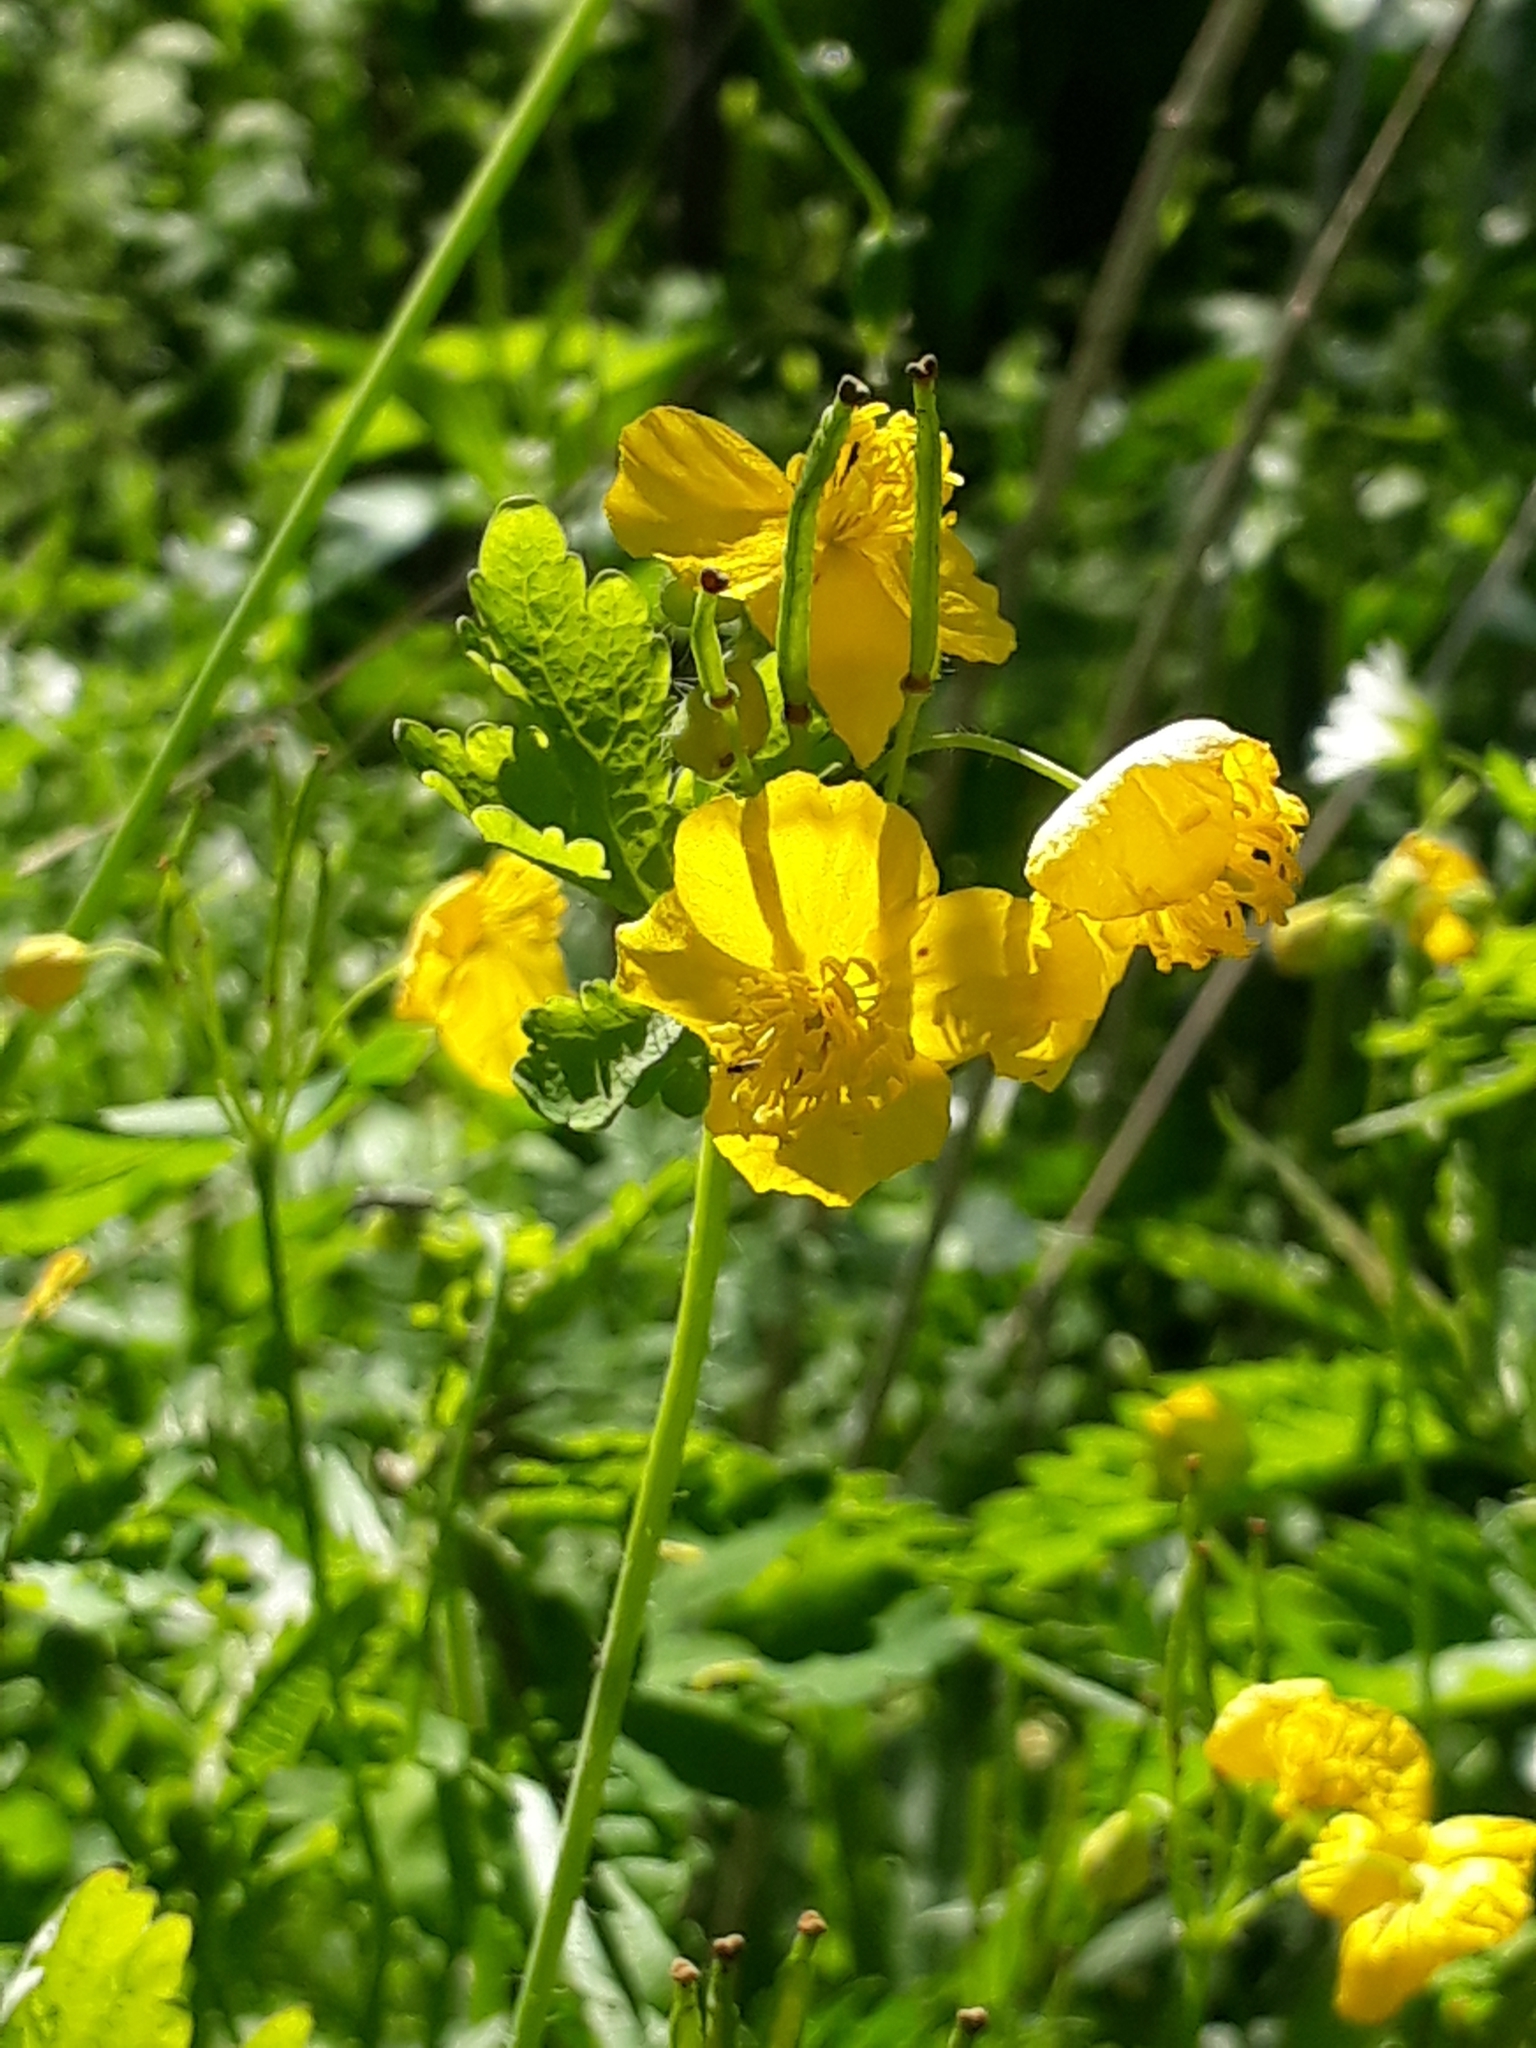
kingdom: Plantae
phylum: Tracheophyta
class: Magnoliopsida
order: Ranunculales
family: Papaveraceae
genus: Chelidonium
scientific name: Chelidonium majus
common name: Greater celandine
